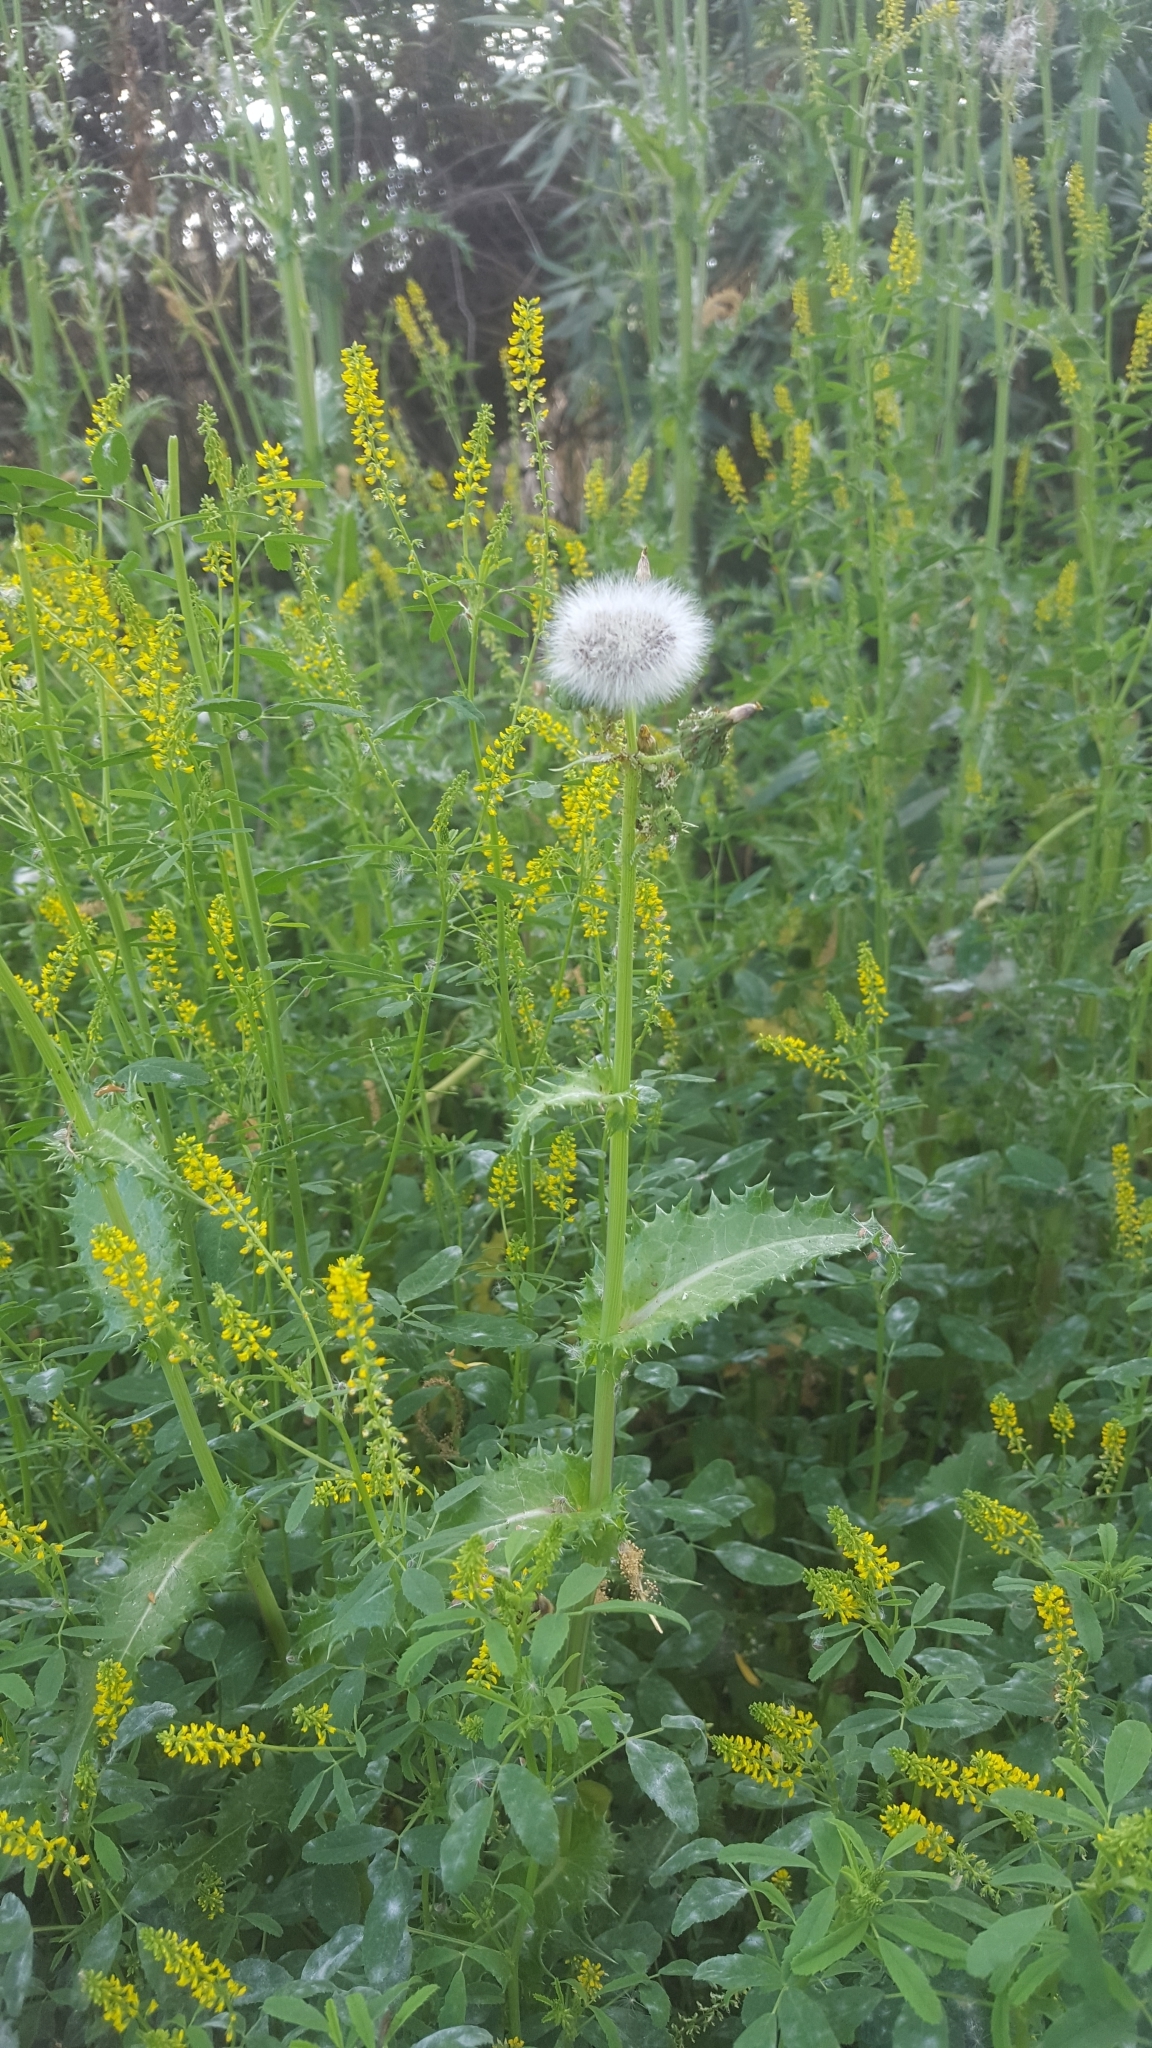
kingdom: Plantae
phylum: Tracheophyta
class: Magnoliopsida
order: Asterales
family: Asteraceae
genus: Sonchus
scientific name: Sonchus asper
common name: Prickly sow-thistle
